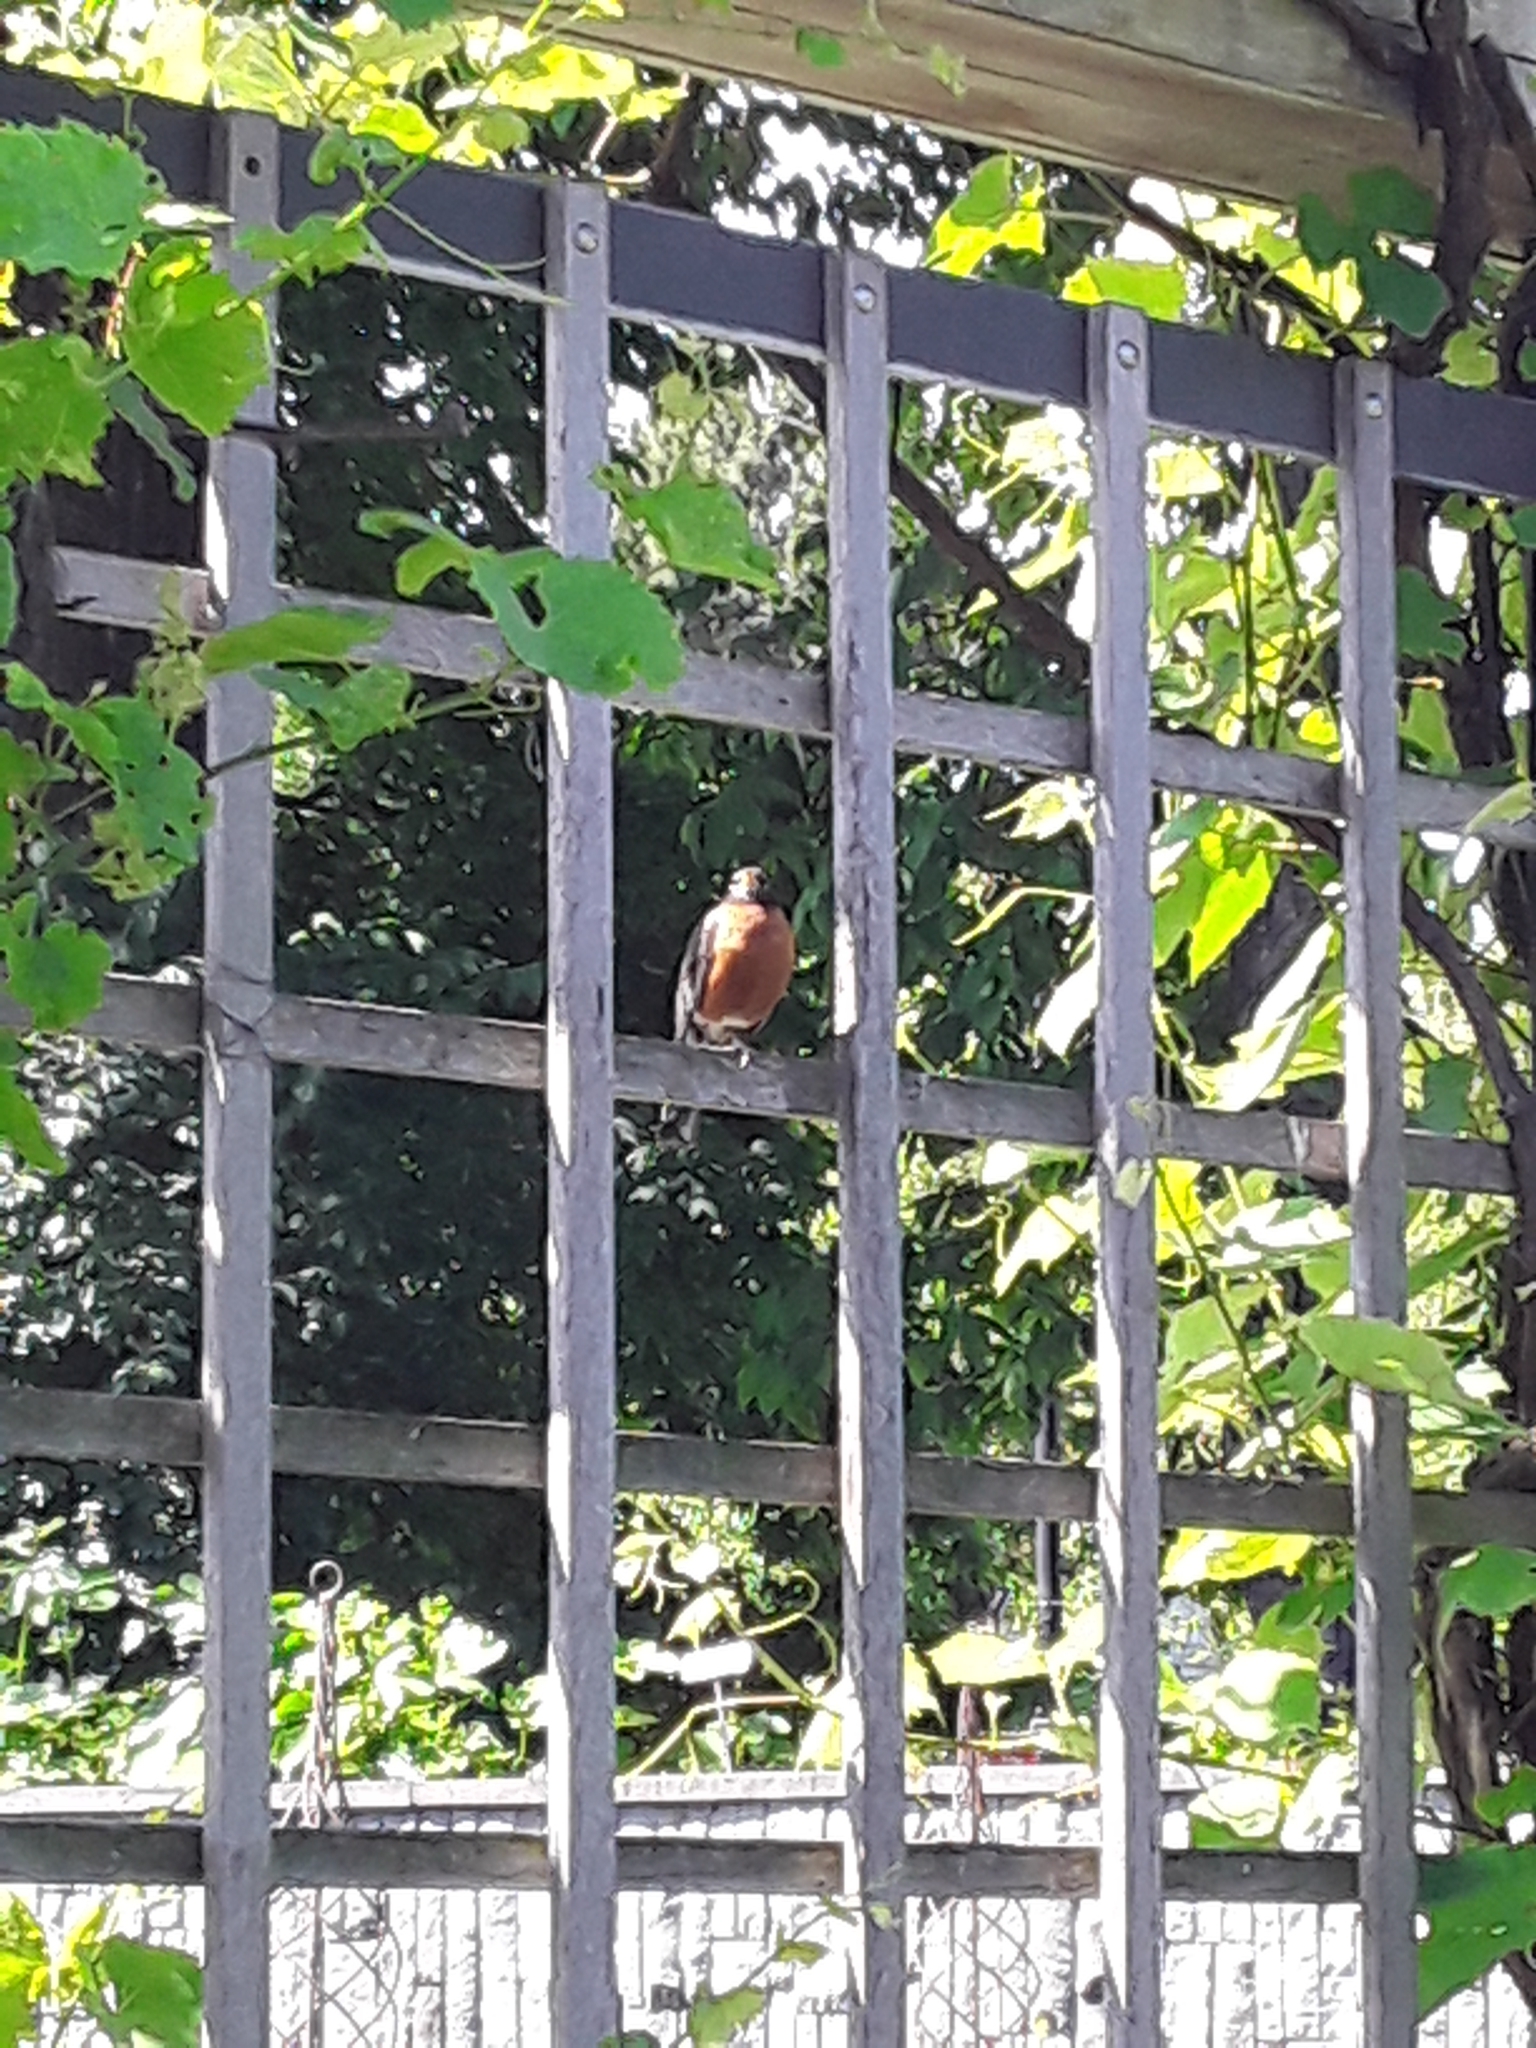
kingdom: Animalia
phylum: Chordata
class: Aves
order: Passeriformes
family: Turdidae
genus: Turdus
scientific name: Turdus migratorius
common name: American robin
